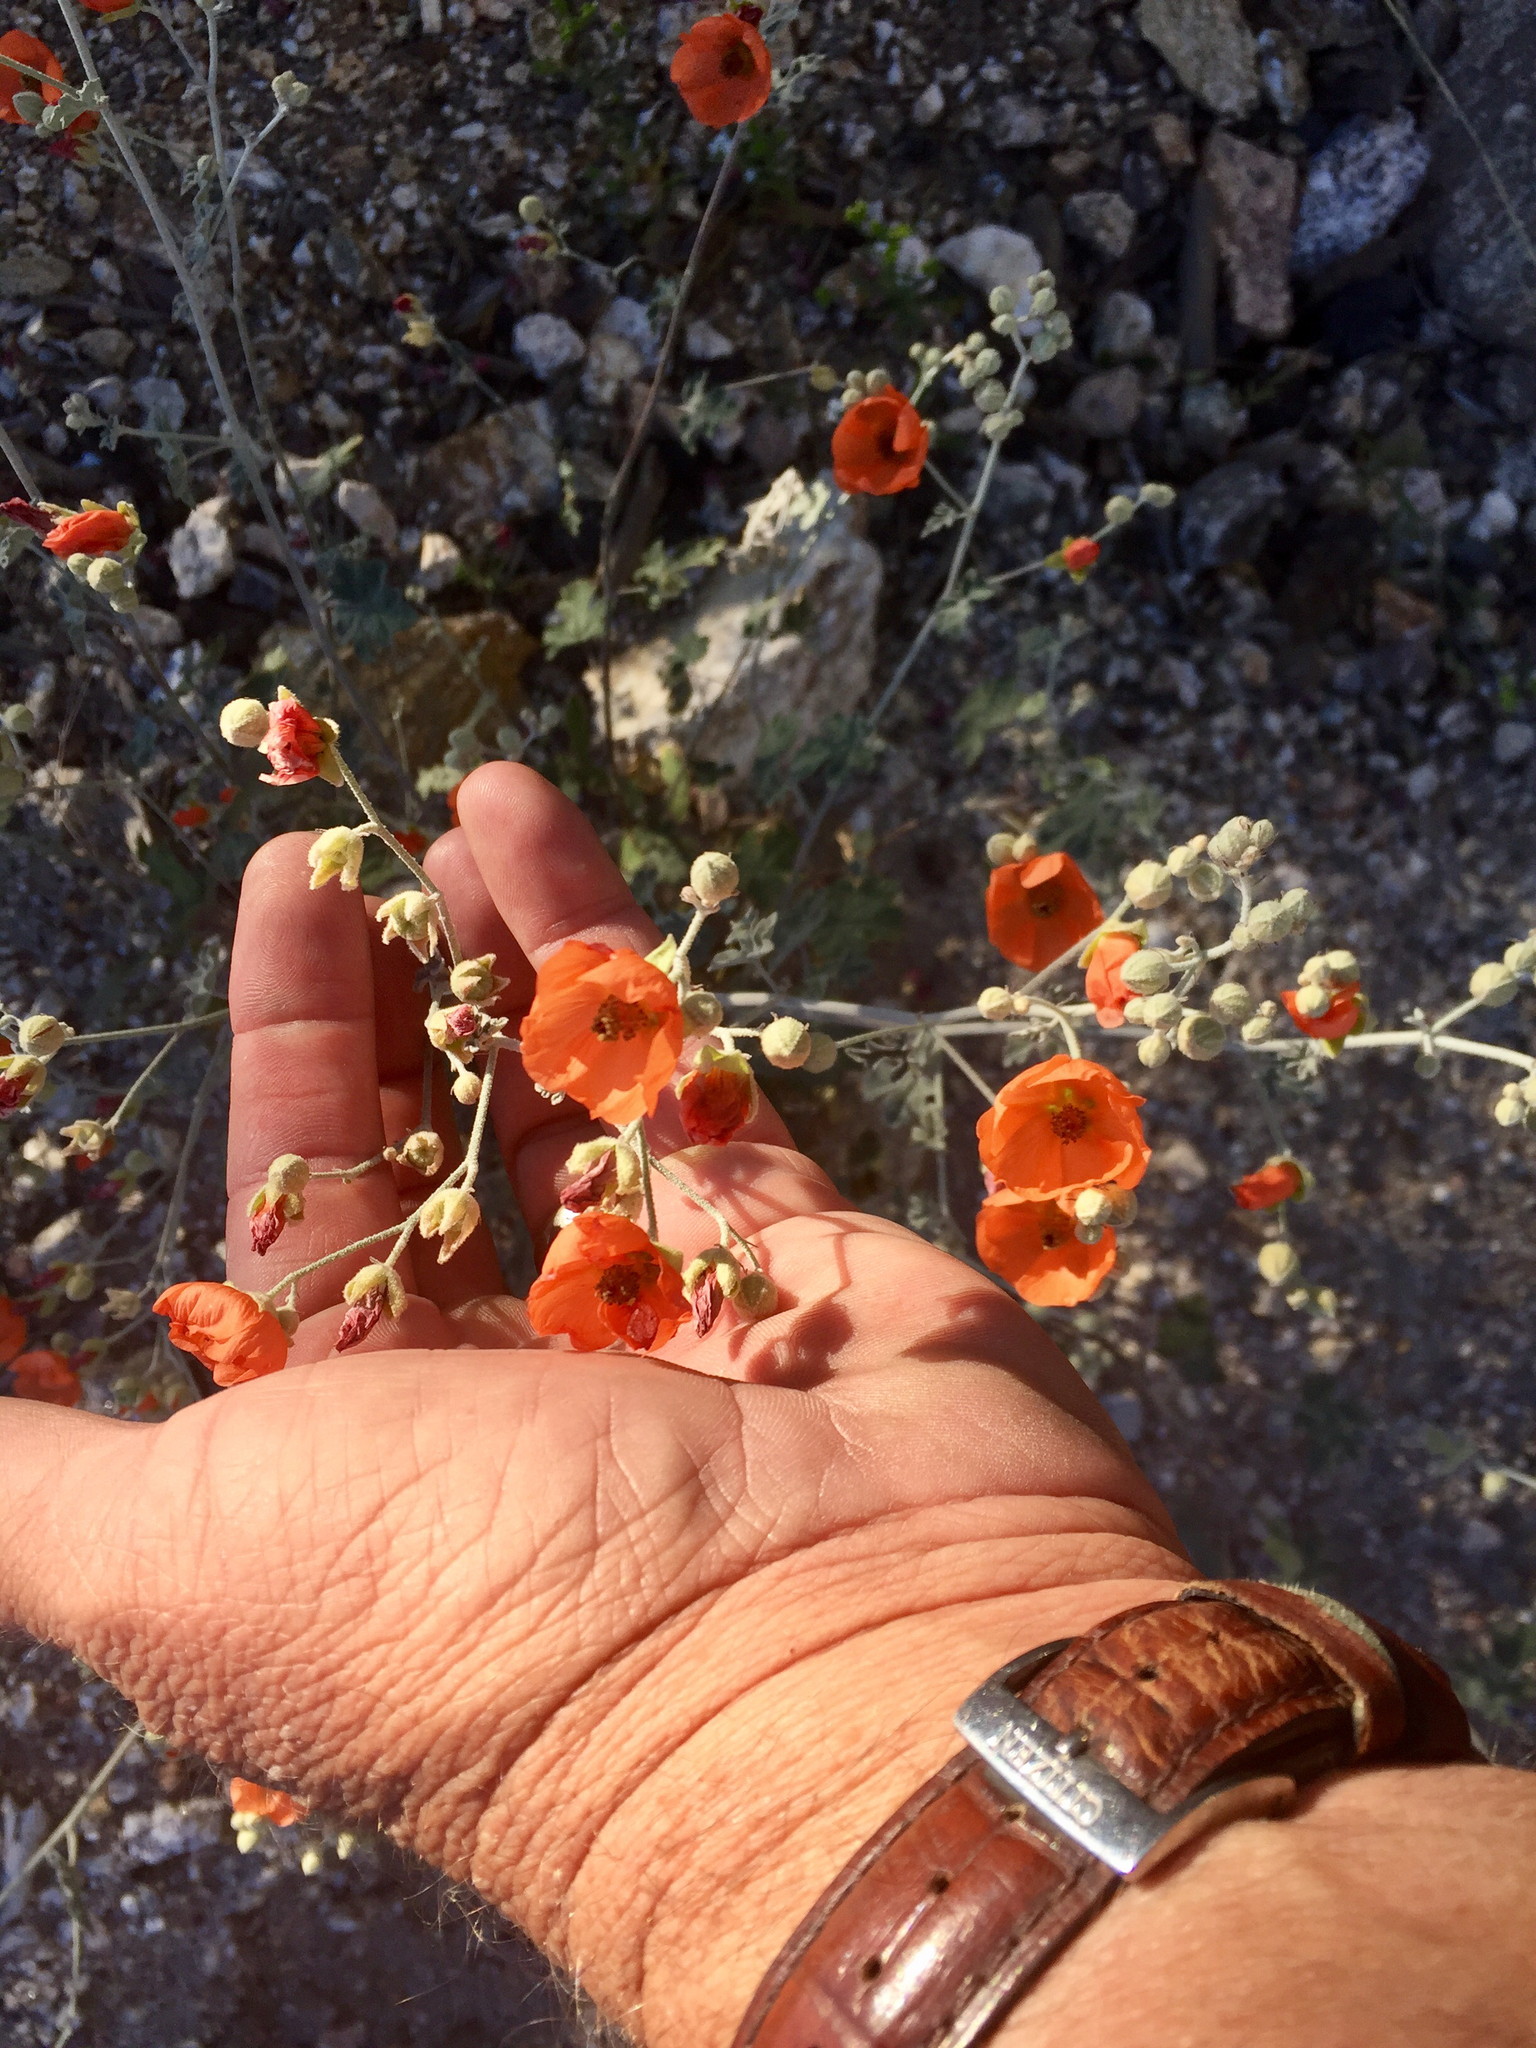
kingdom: Plantae
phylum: Tracheophyta
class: Magnoliopsida
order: Malvales
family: Malvaceae
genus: Sphaeralcea
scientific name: Sphaeralcea laxa
